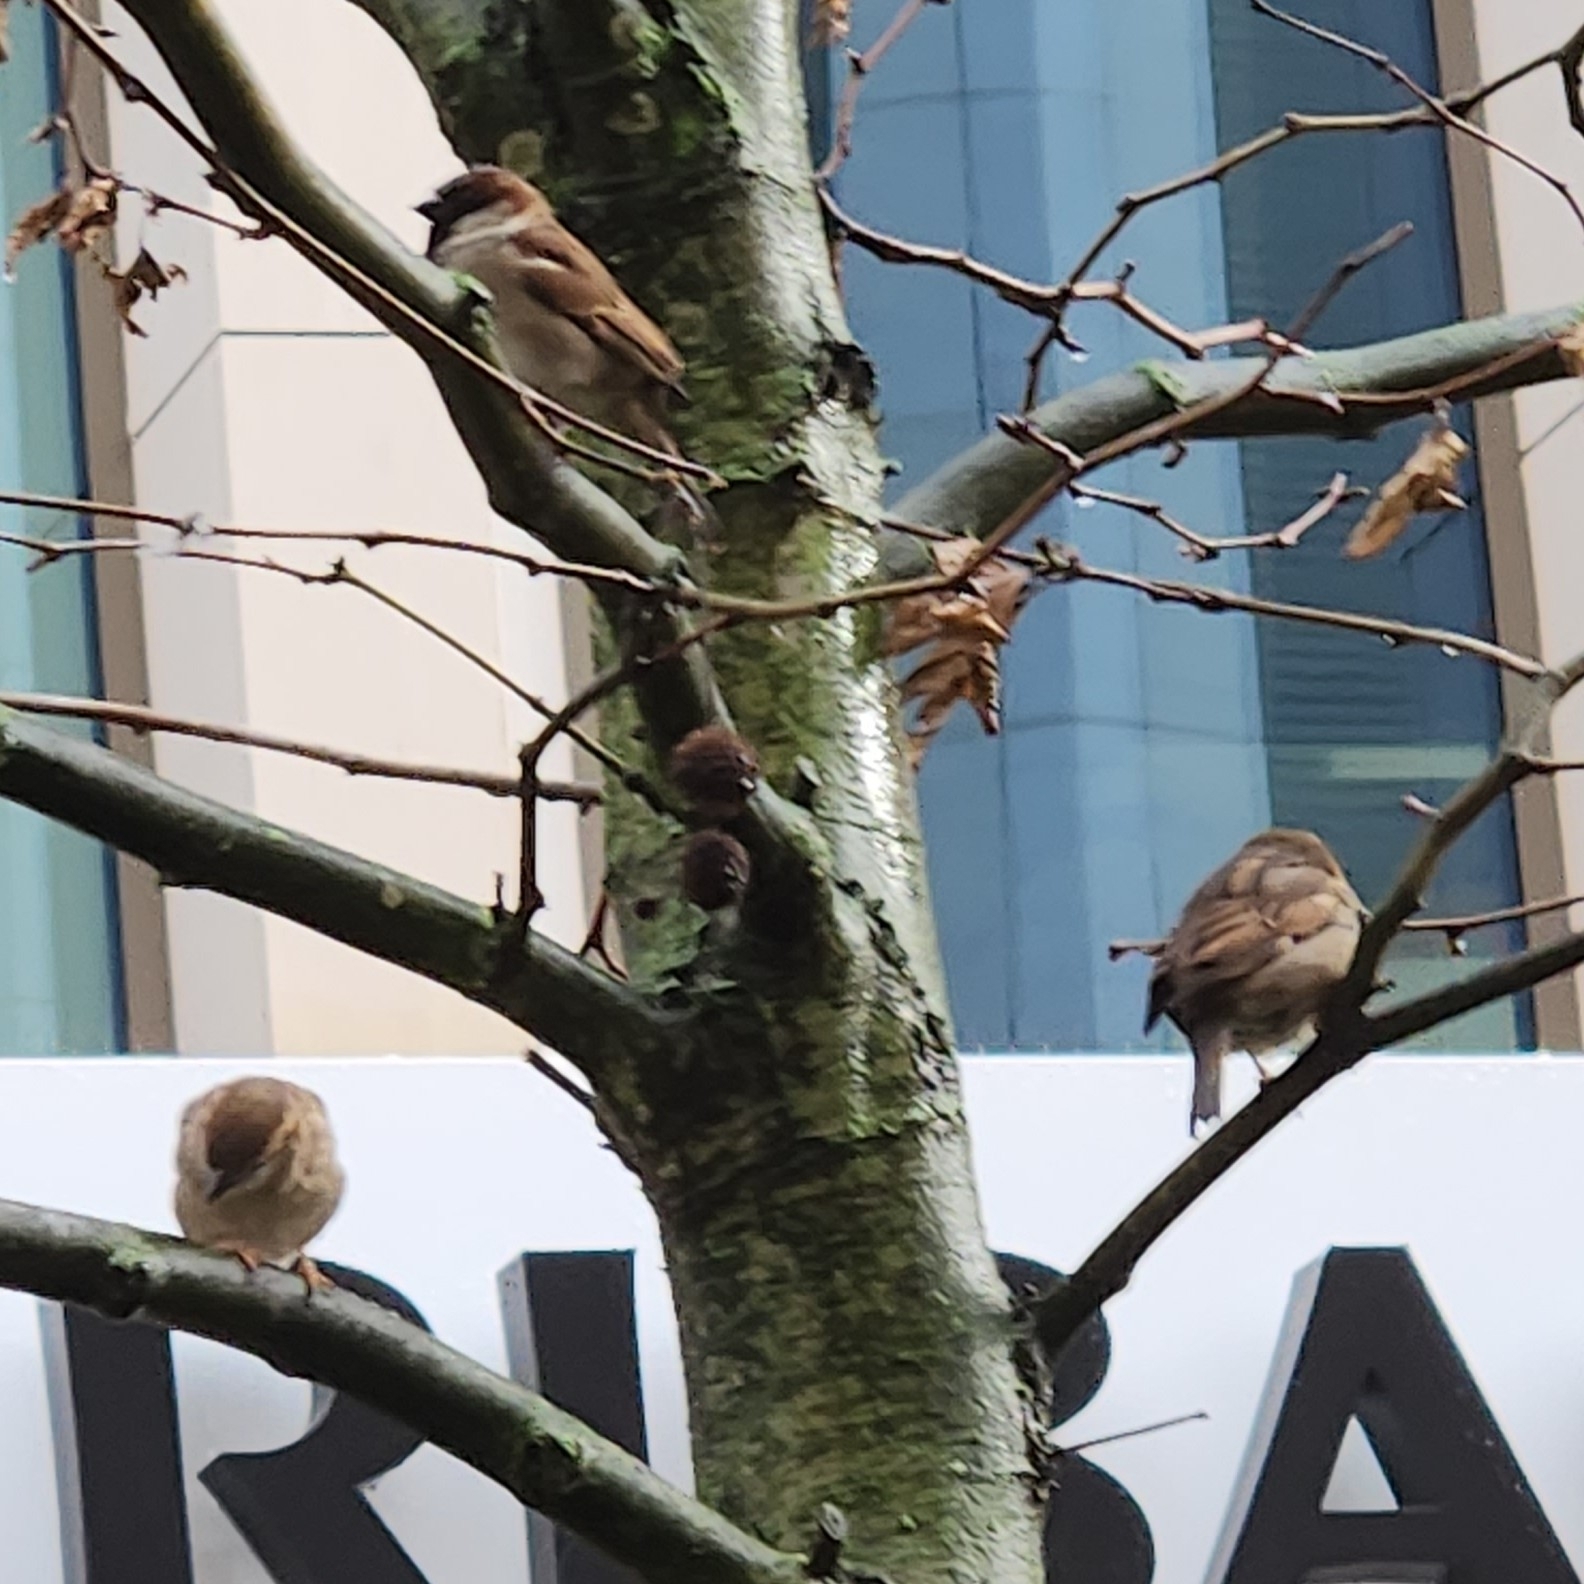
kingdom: Animalia
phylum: Chordata
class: Aves
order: Passeriformes
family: Passeridae
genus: Passer
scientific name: Passer domesticus
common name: House sparrow
